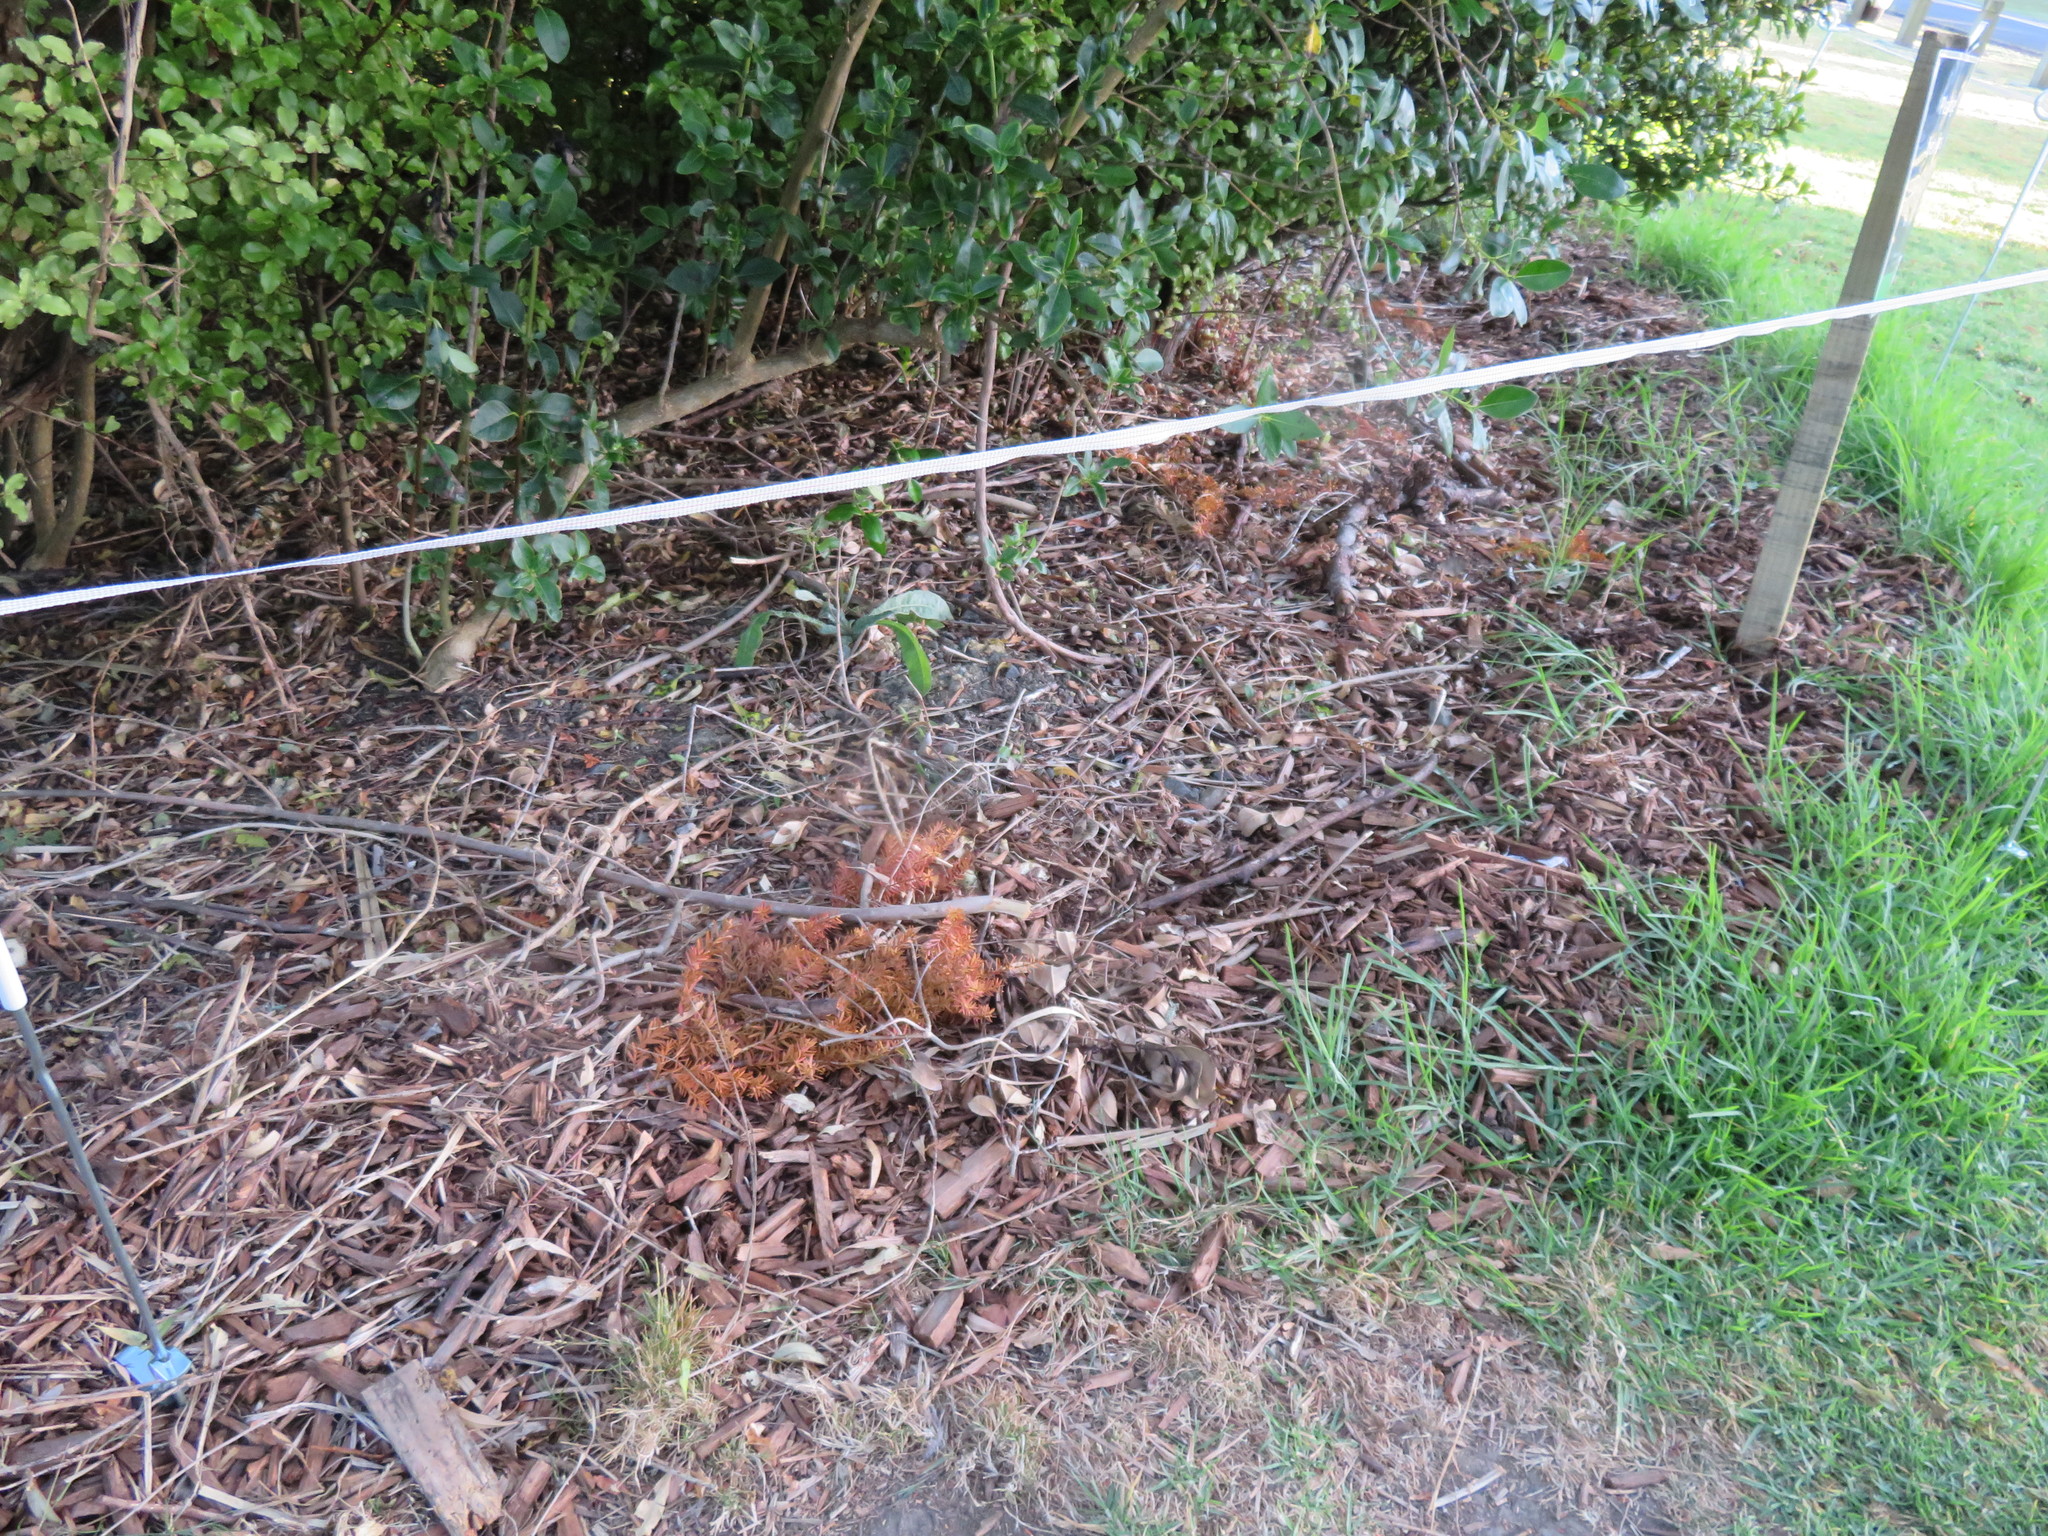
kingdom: Plantae
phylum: Tracheophyta
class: Liliopsida
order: Poales
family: Poaceae
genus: Cenchrus
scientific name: Cenchrus clandestinus
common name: Kikuyugrass
